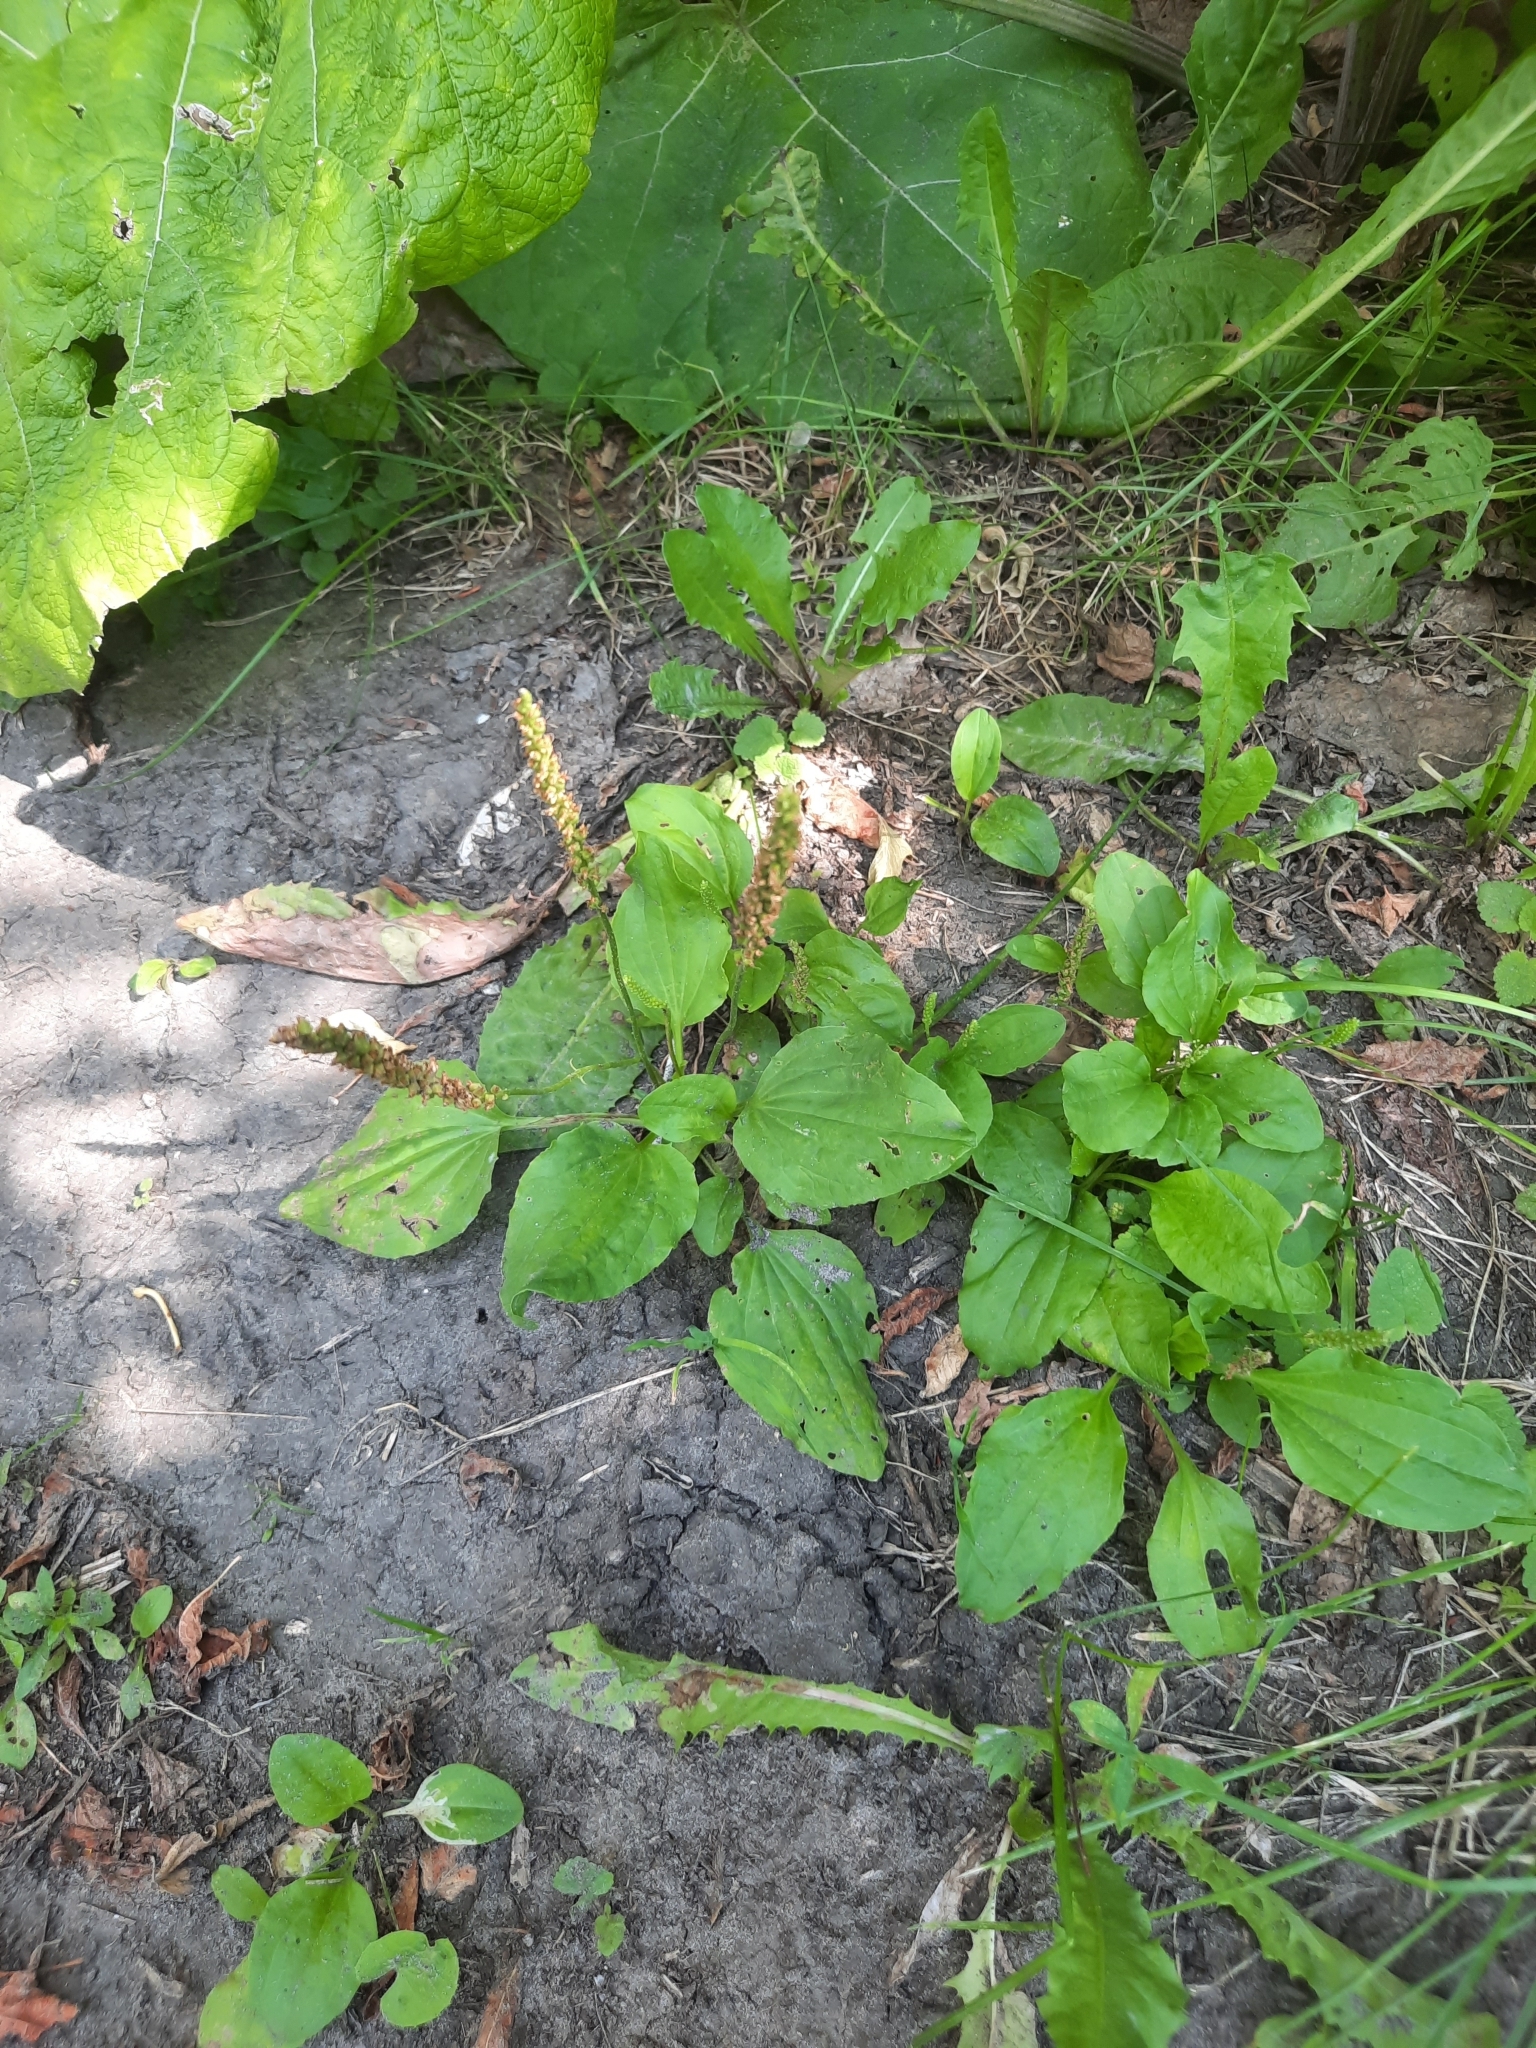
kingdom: Plantae
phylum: Tracheophyta
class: Magnoliopsida
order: Lamiales
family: Plantaginaceae
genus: Plantago
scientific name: Plantago major
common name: Common plantain
